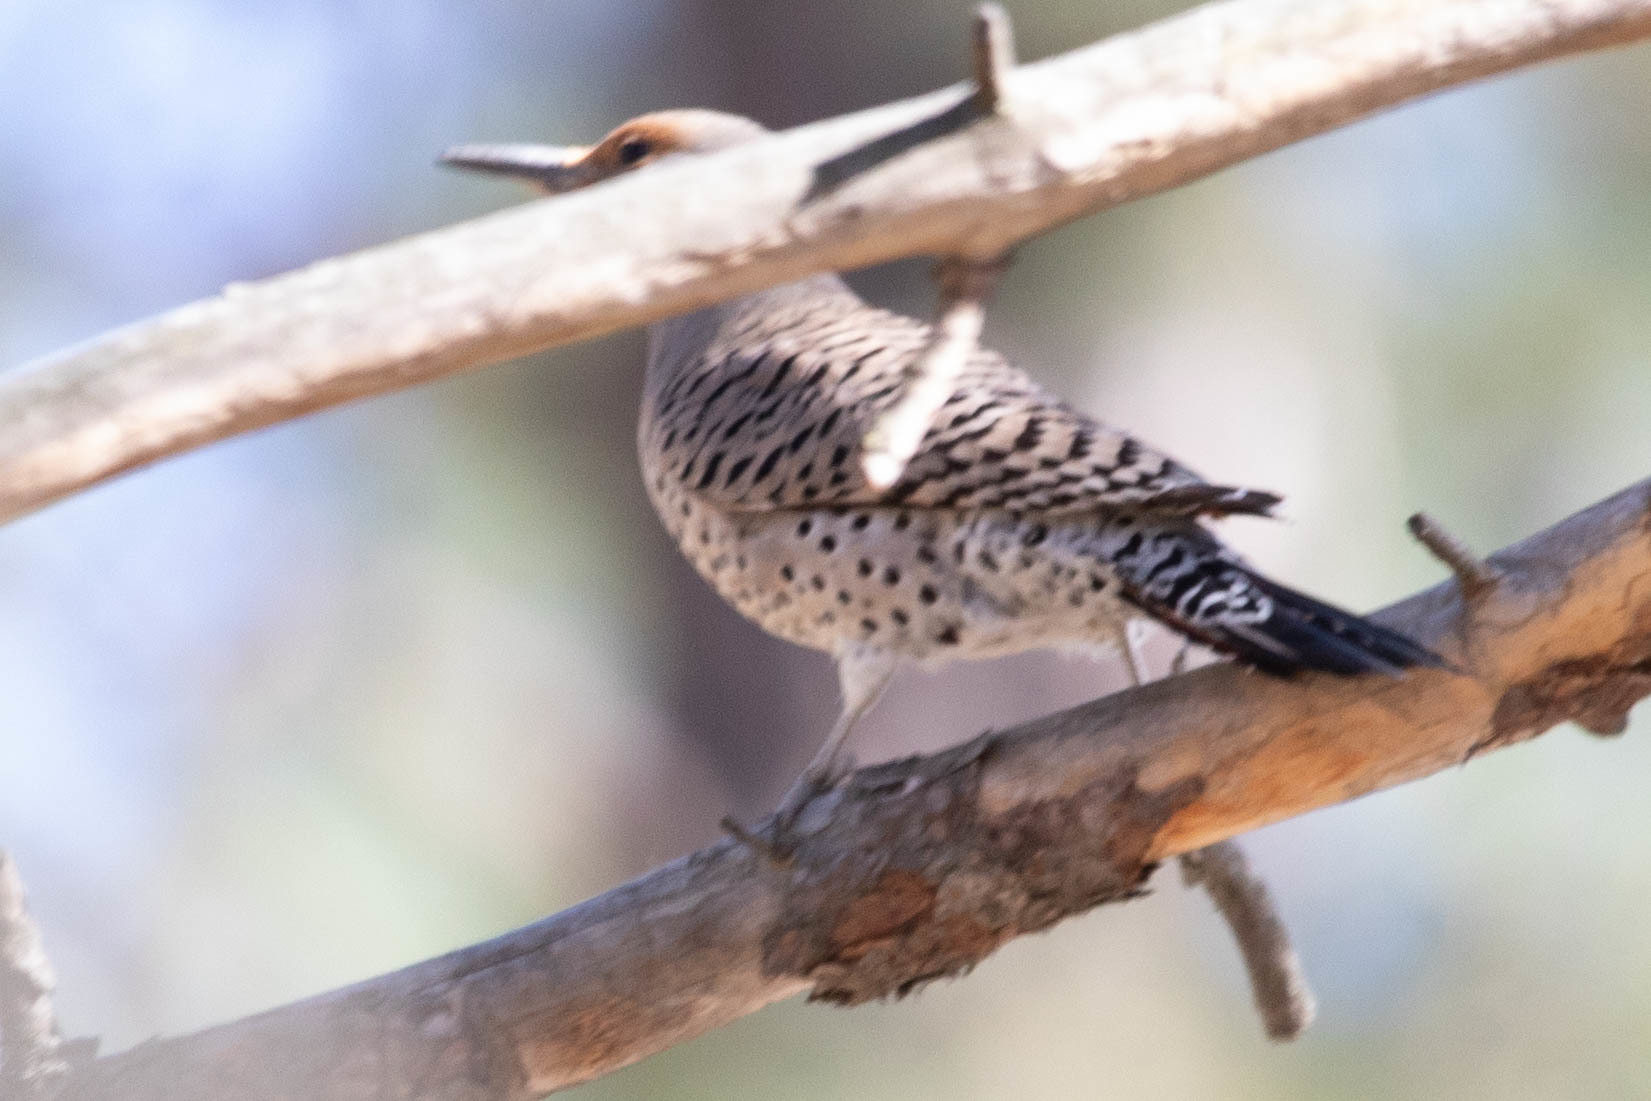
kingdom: Animalia
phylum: Chordata
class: Aves
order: Piciformes
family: Picidae
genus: Colaptes
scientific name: Colaptes auratus
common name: Northern flicker
